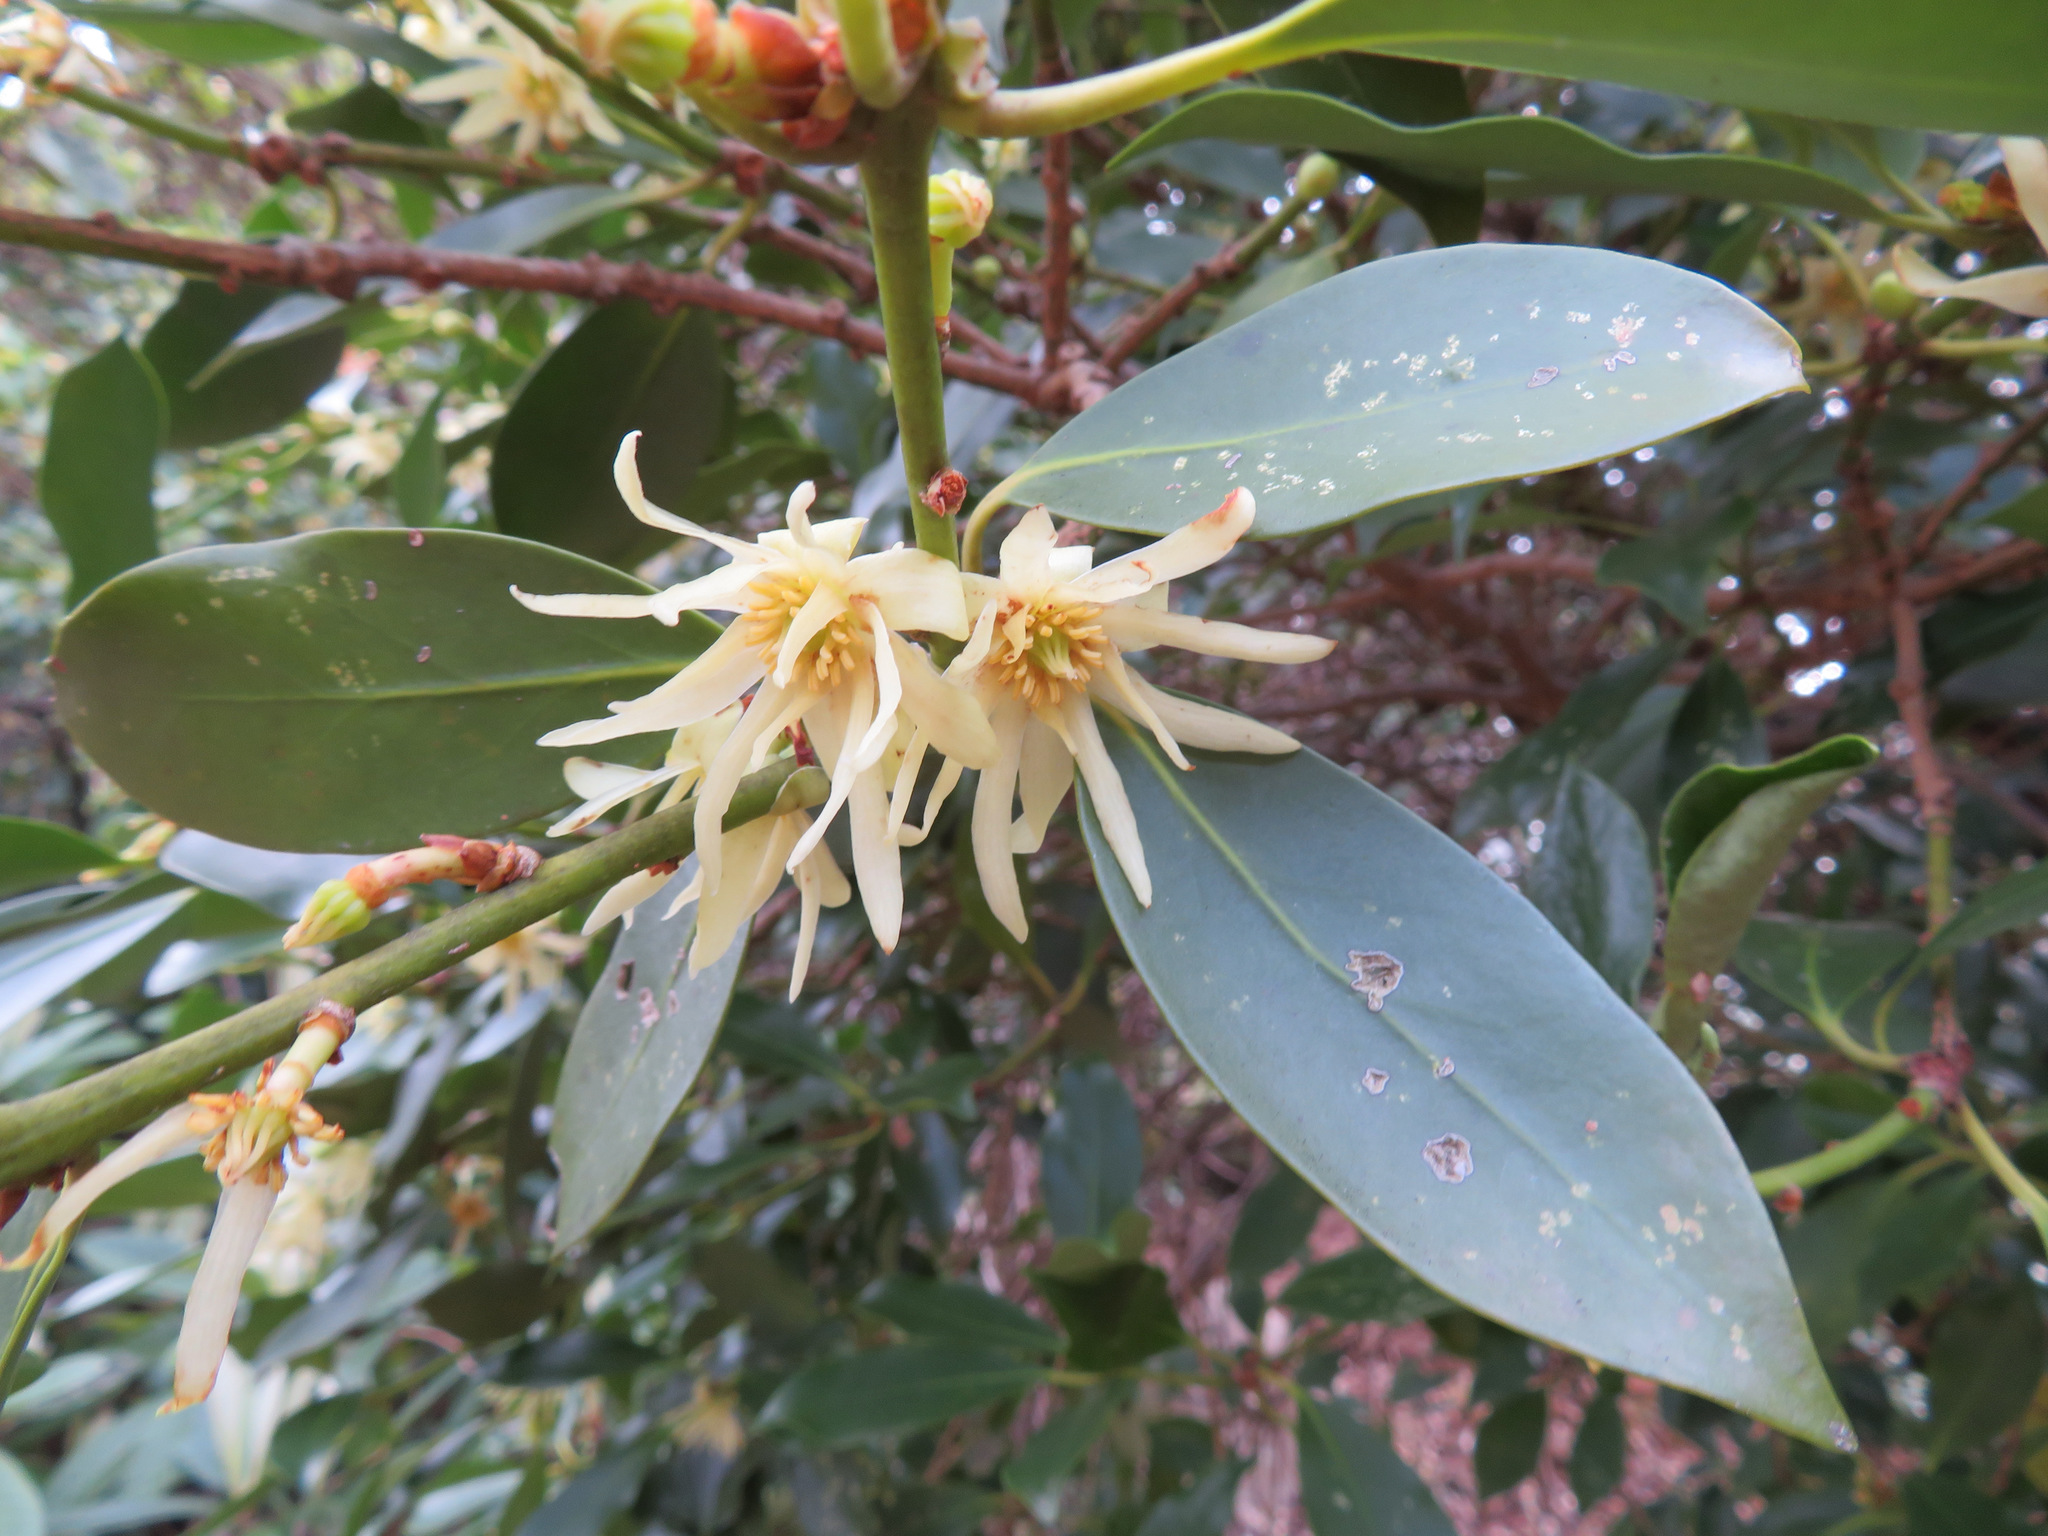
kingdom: Plantae
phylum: Tracheophyta
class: Magnoliopsida
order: Austrobaileyales
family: Schisandraceae
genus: Illicium
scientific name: Illicium anisatum
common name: Sacred anisetree
